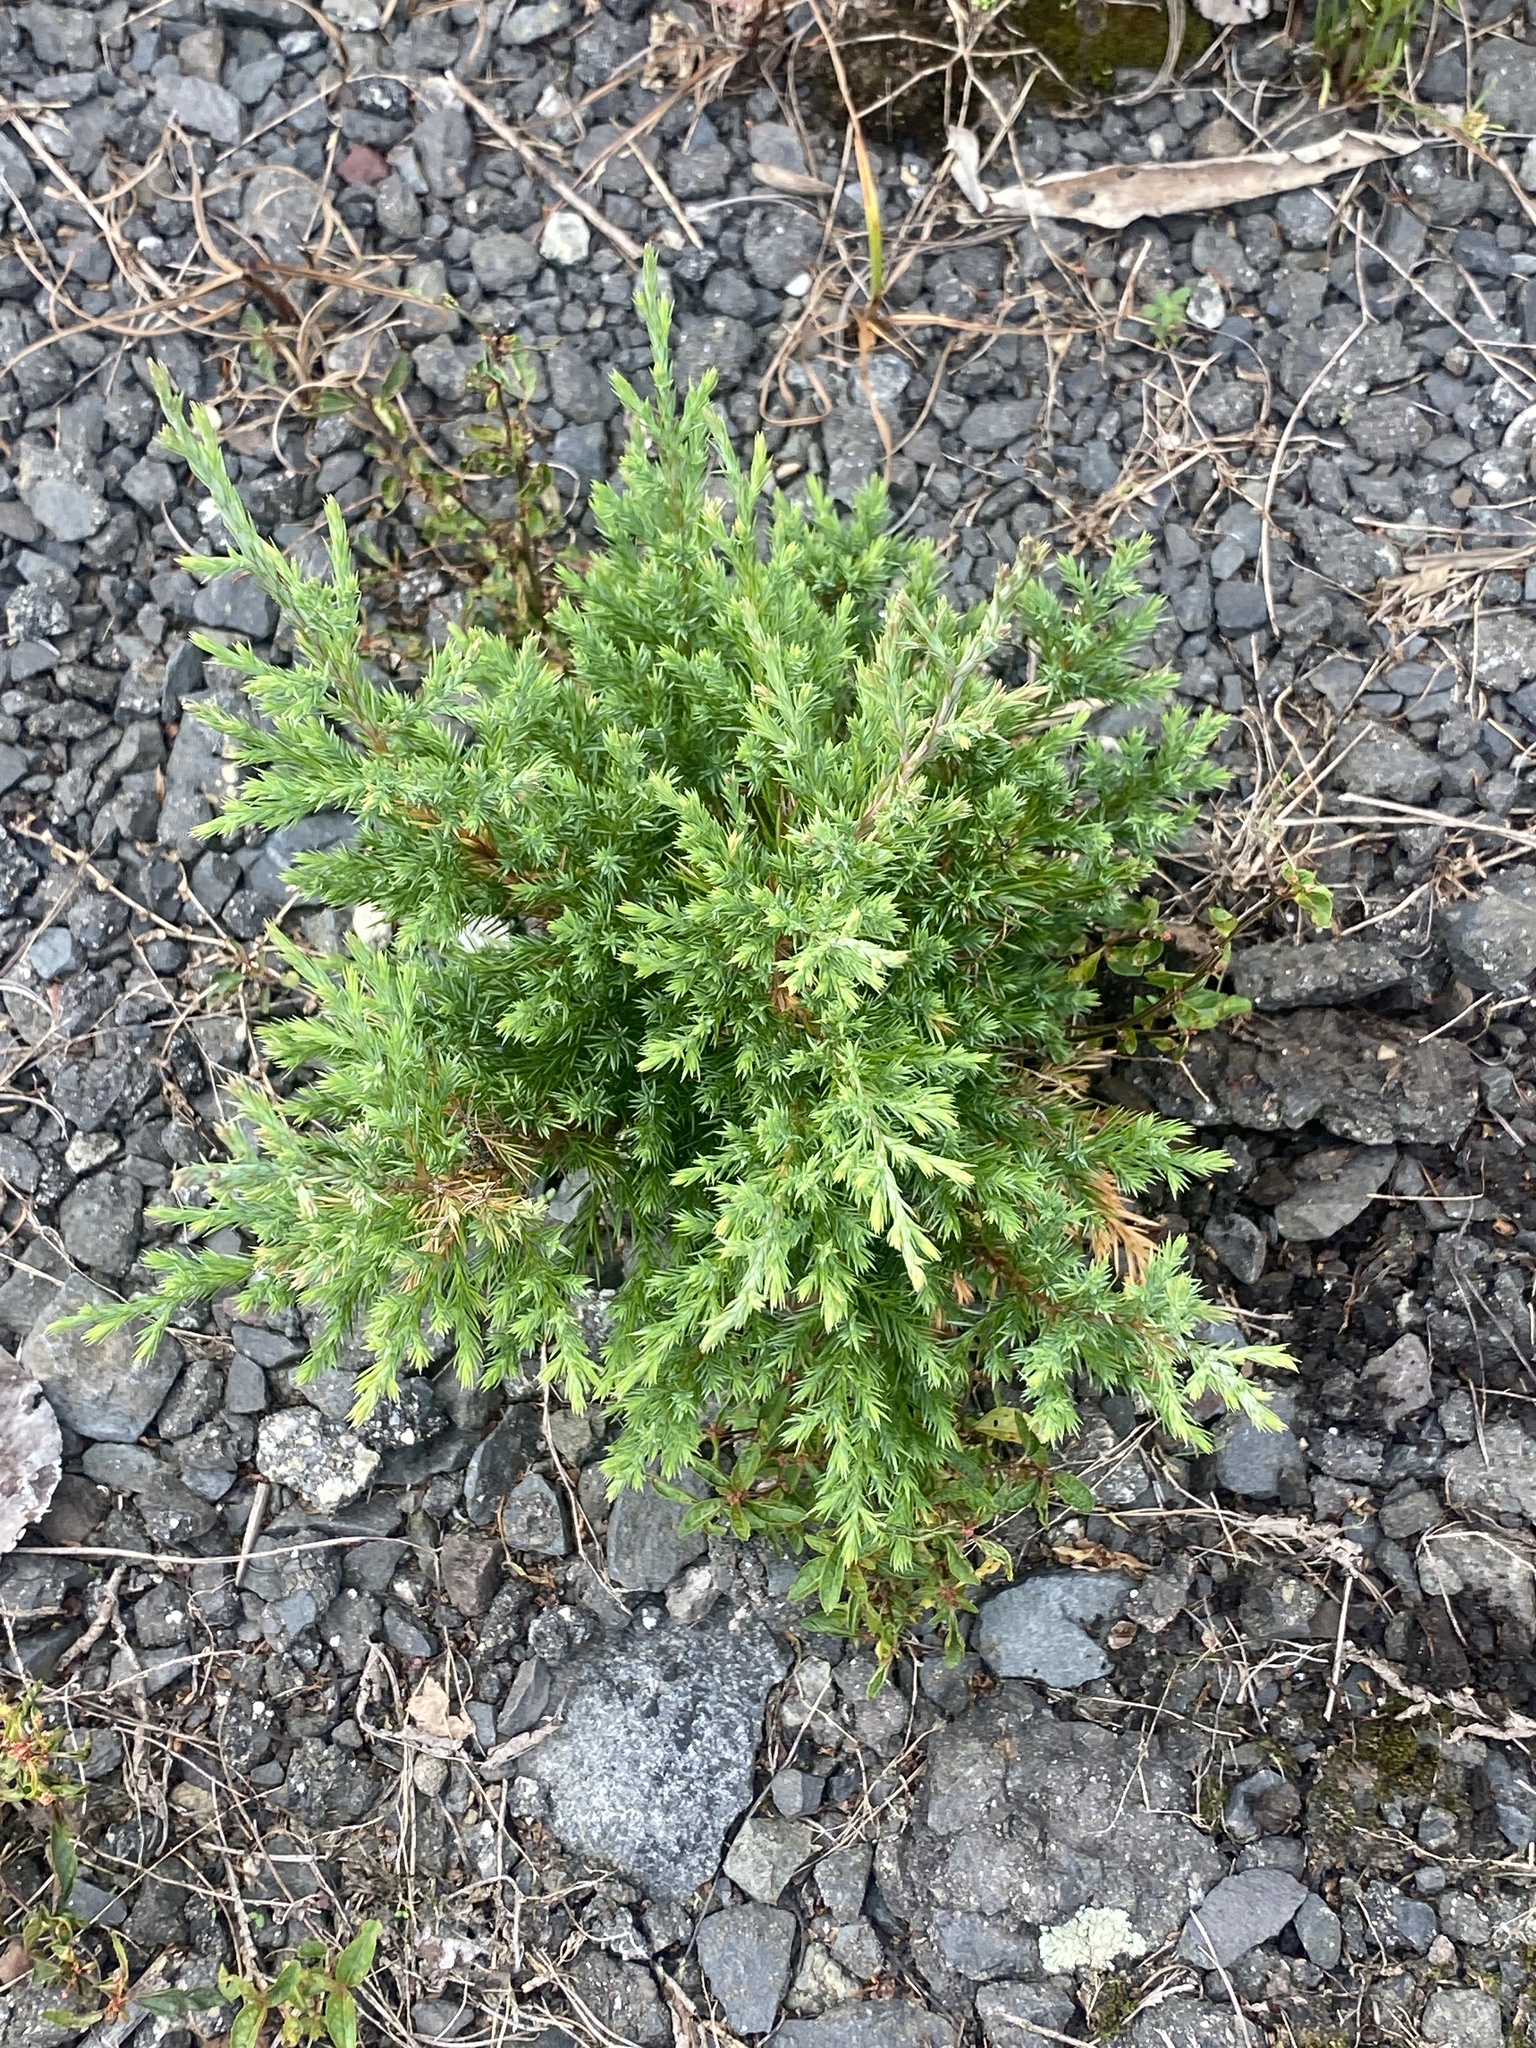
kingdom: Plantae
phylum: Tracheophyta
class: Pinopsida
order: Pinales
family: Cupressaceae
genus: Juniperus
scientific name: Juniperus virginiana
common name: Red juniper
